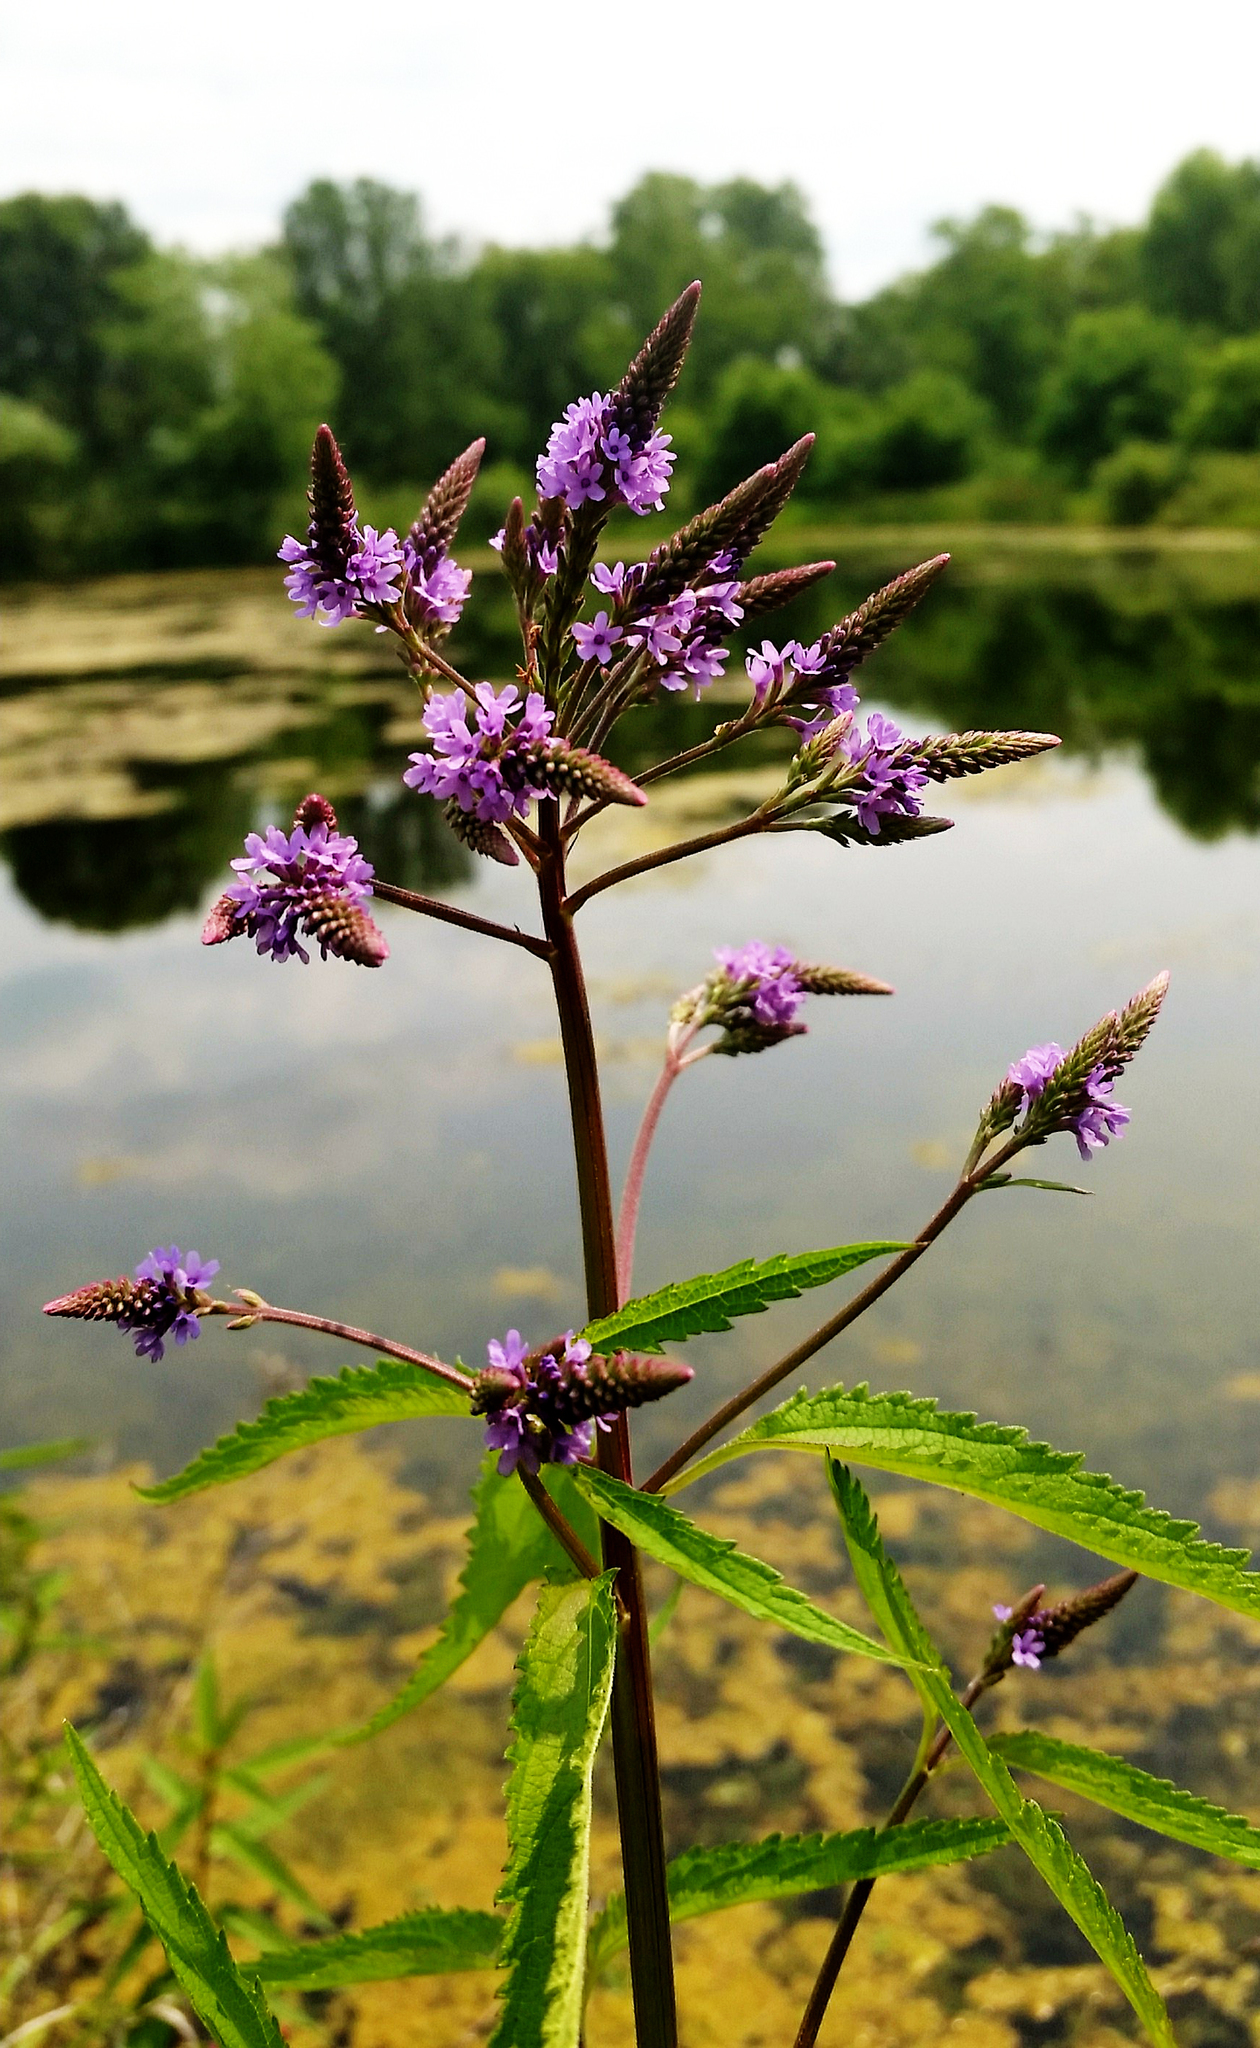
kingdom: Plantae
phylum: Tracheophyta
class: Magnoliopsida
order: Lamiales
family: Verbenaceae
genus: Verbena
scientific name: Verbena hastata
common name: American blue vervain
